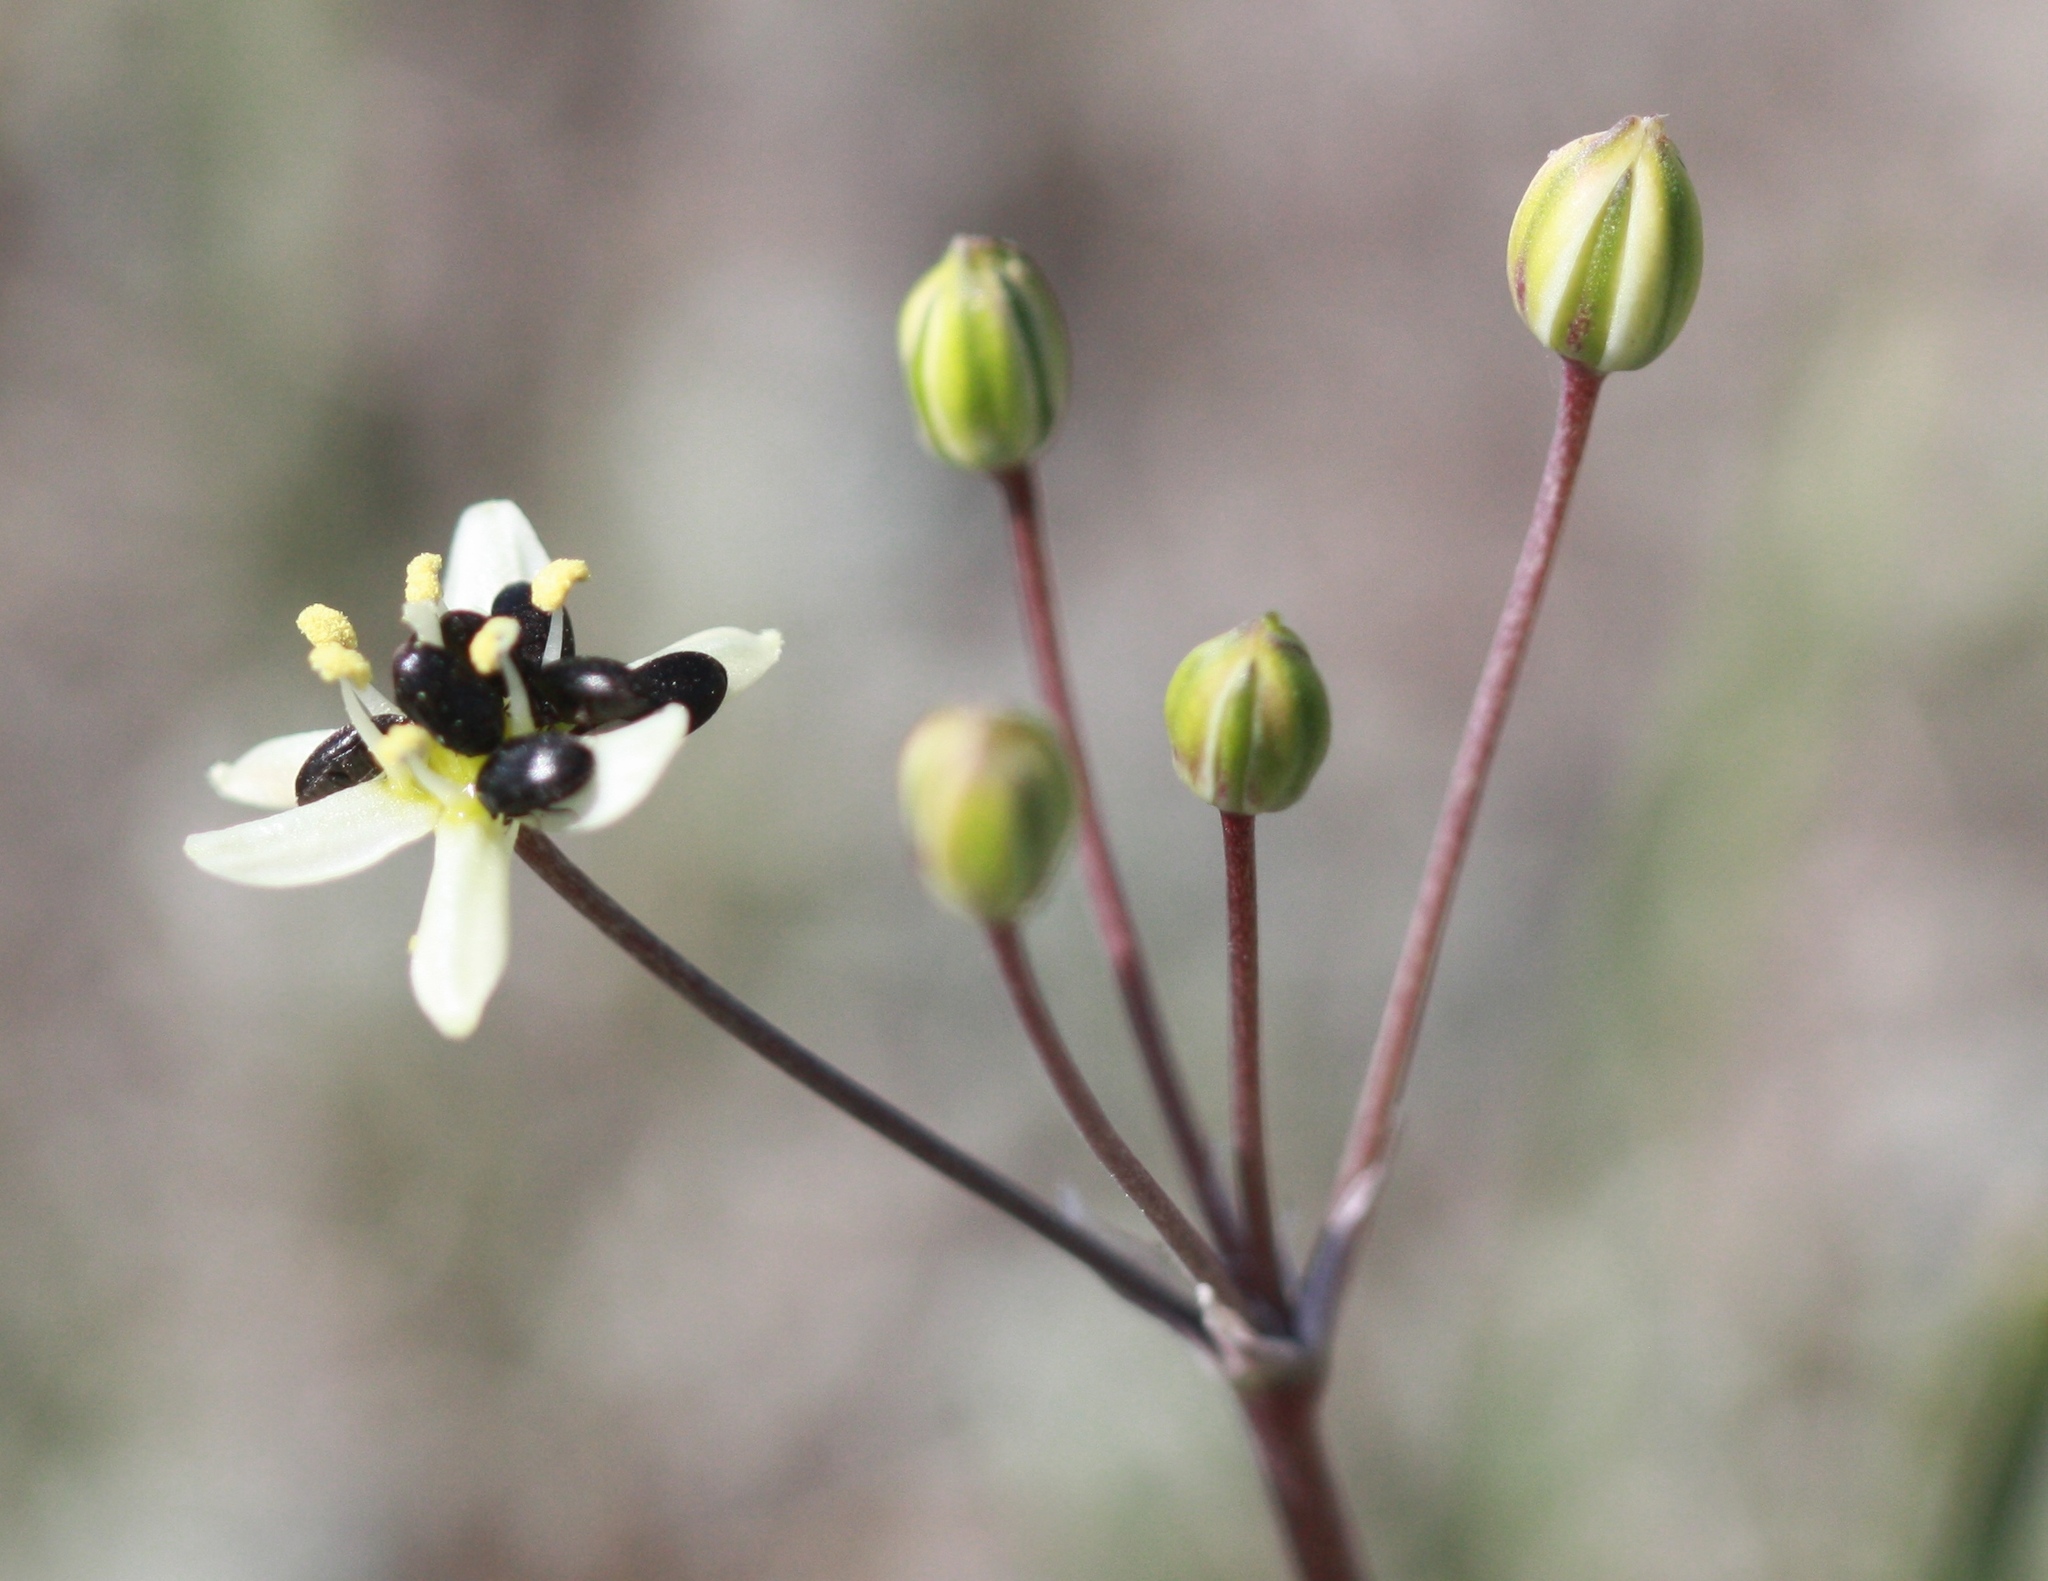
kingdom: Plantae
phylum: Tracheophyta
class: Liliopsida
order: Asparagales
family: Asparagaceae
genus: Muilla
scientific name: Muilla maritima
